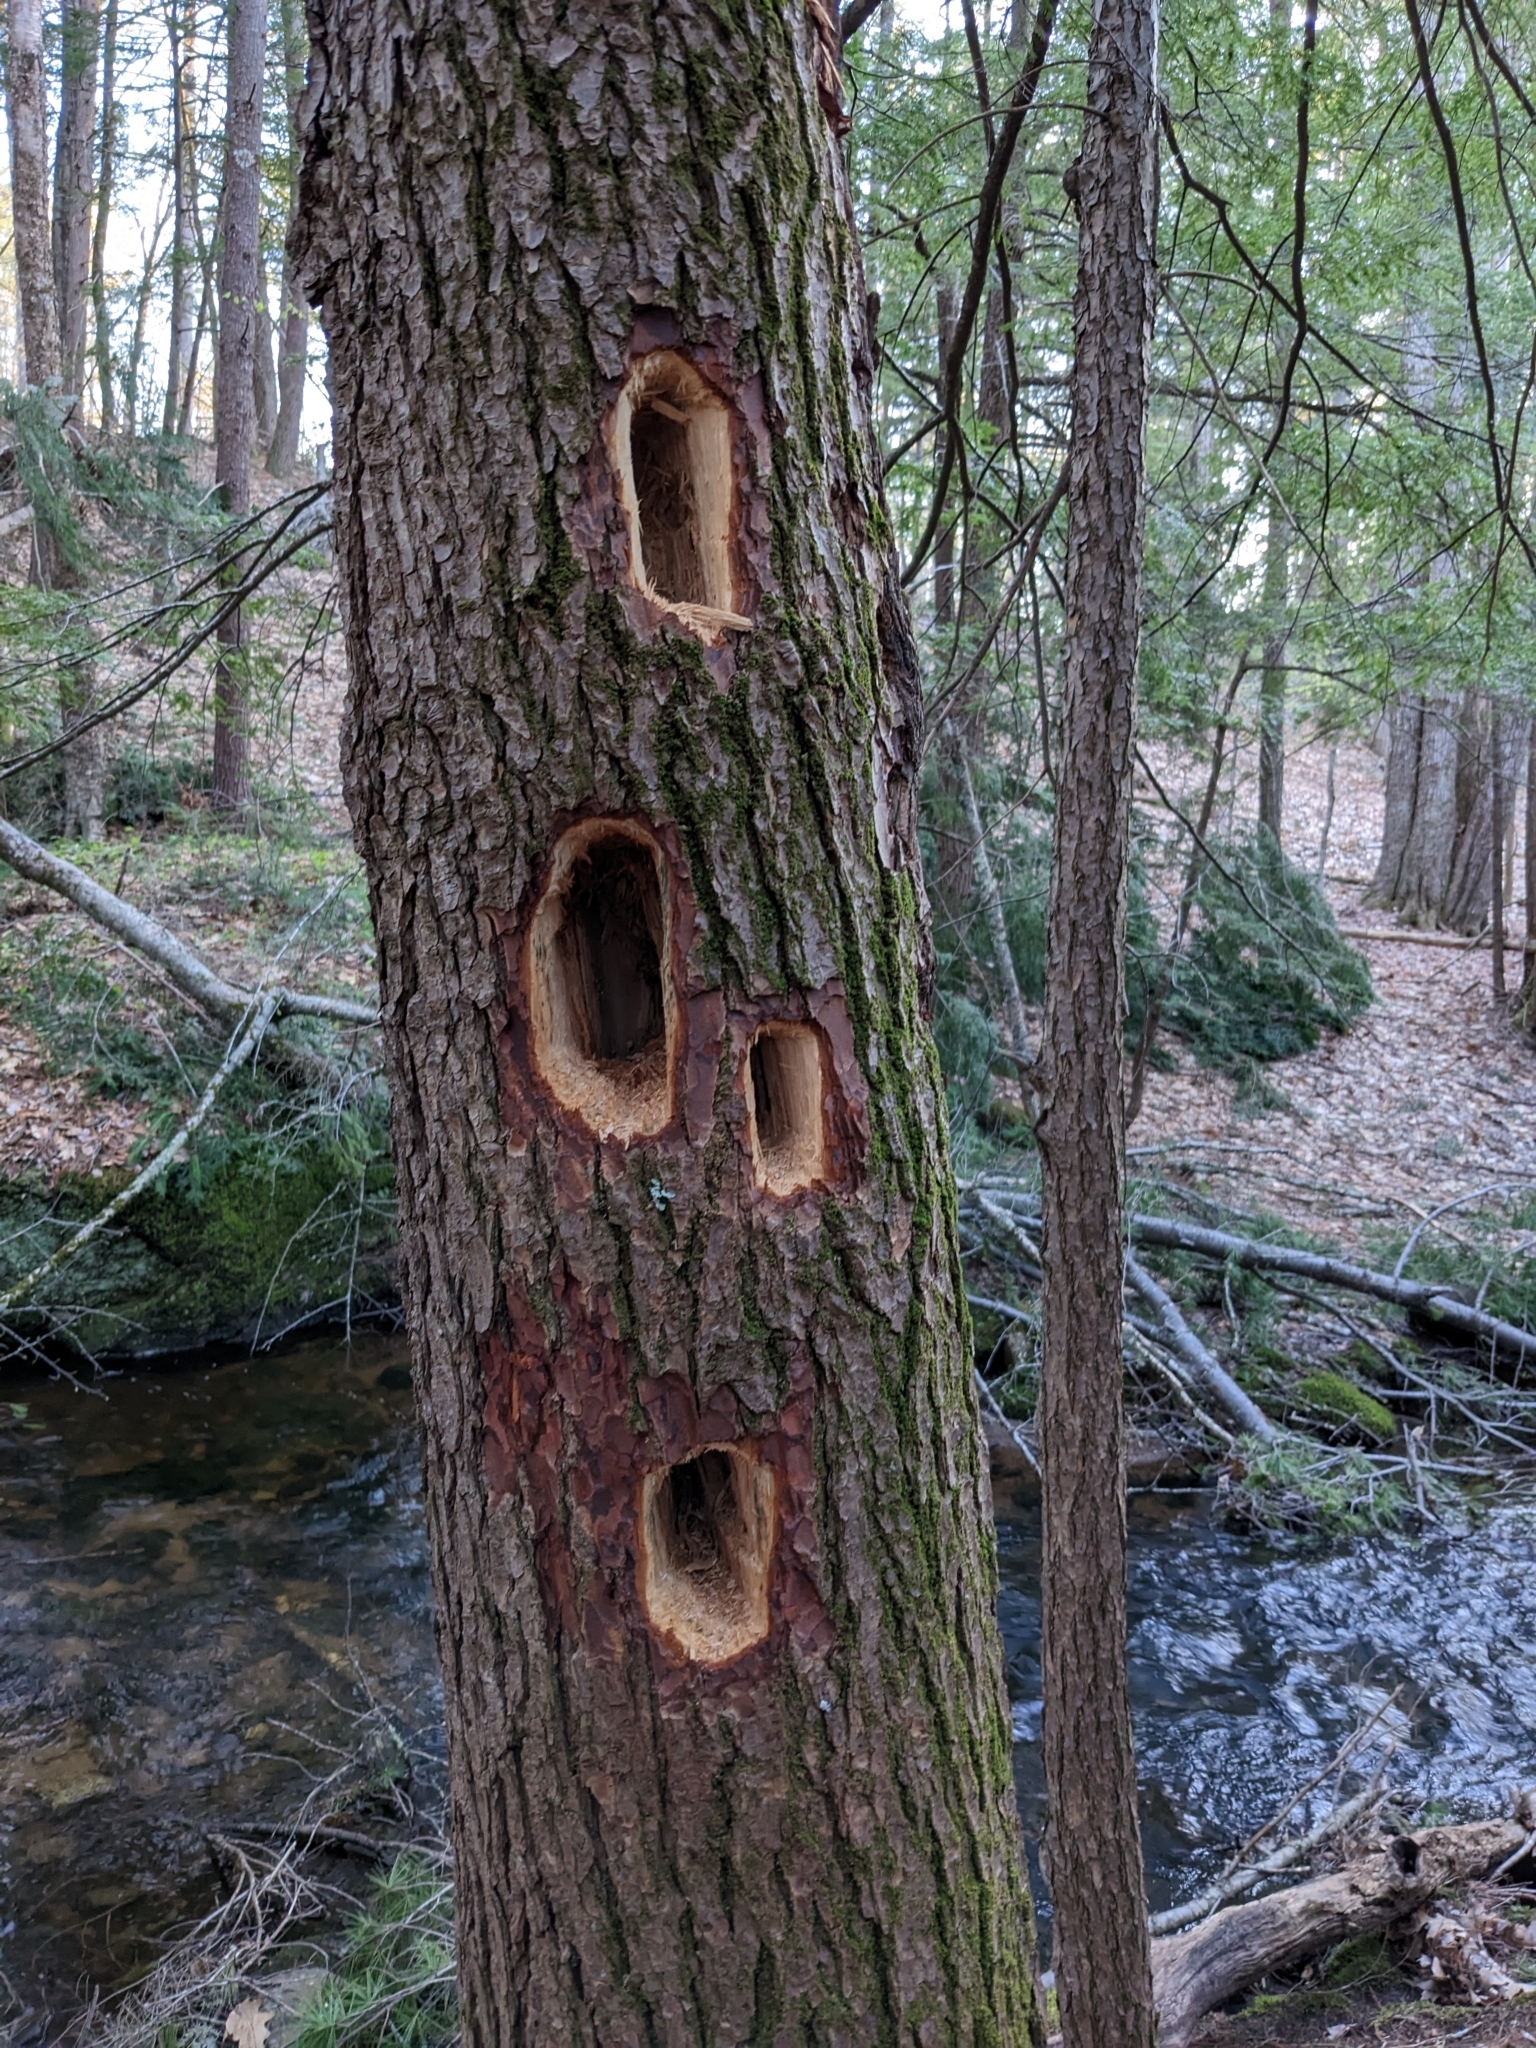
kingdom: Animalia
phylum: Chordata
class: Aves
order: Piciformes
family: Picidae
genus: Dryocopus
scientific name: Dryocopus pileatus
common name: Pileated woodpecker
